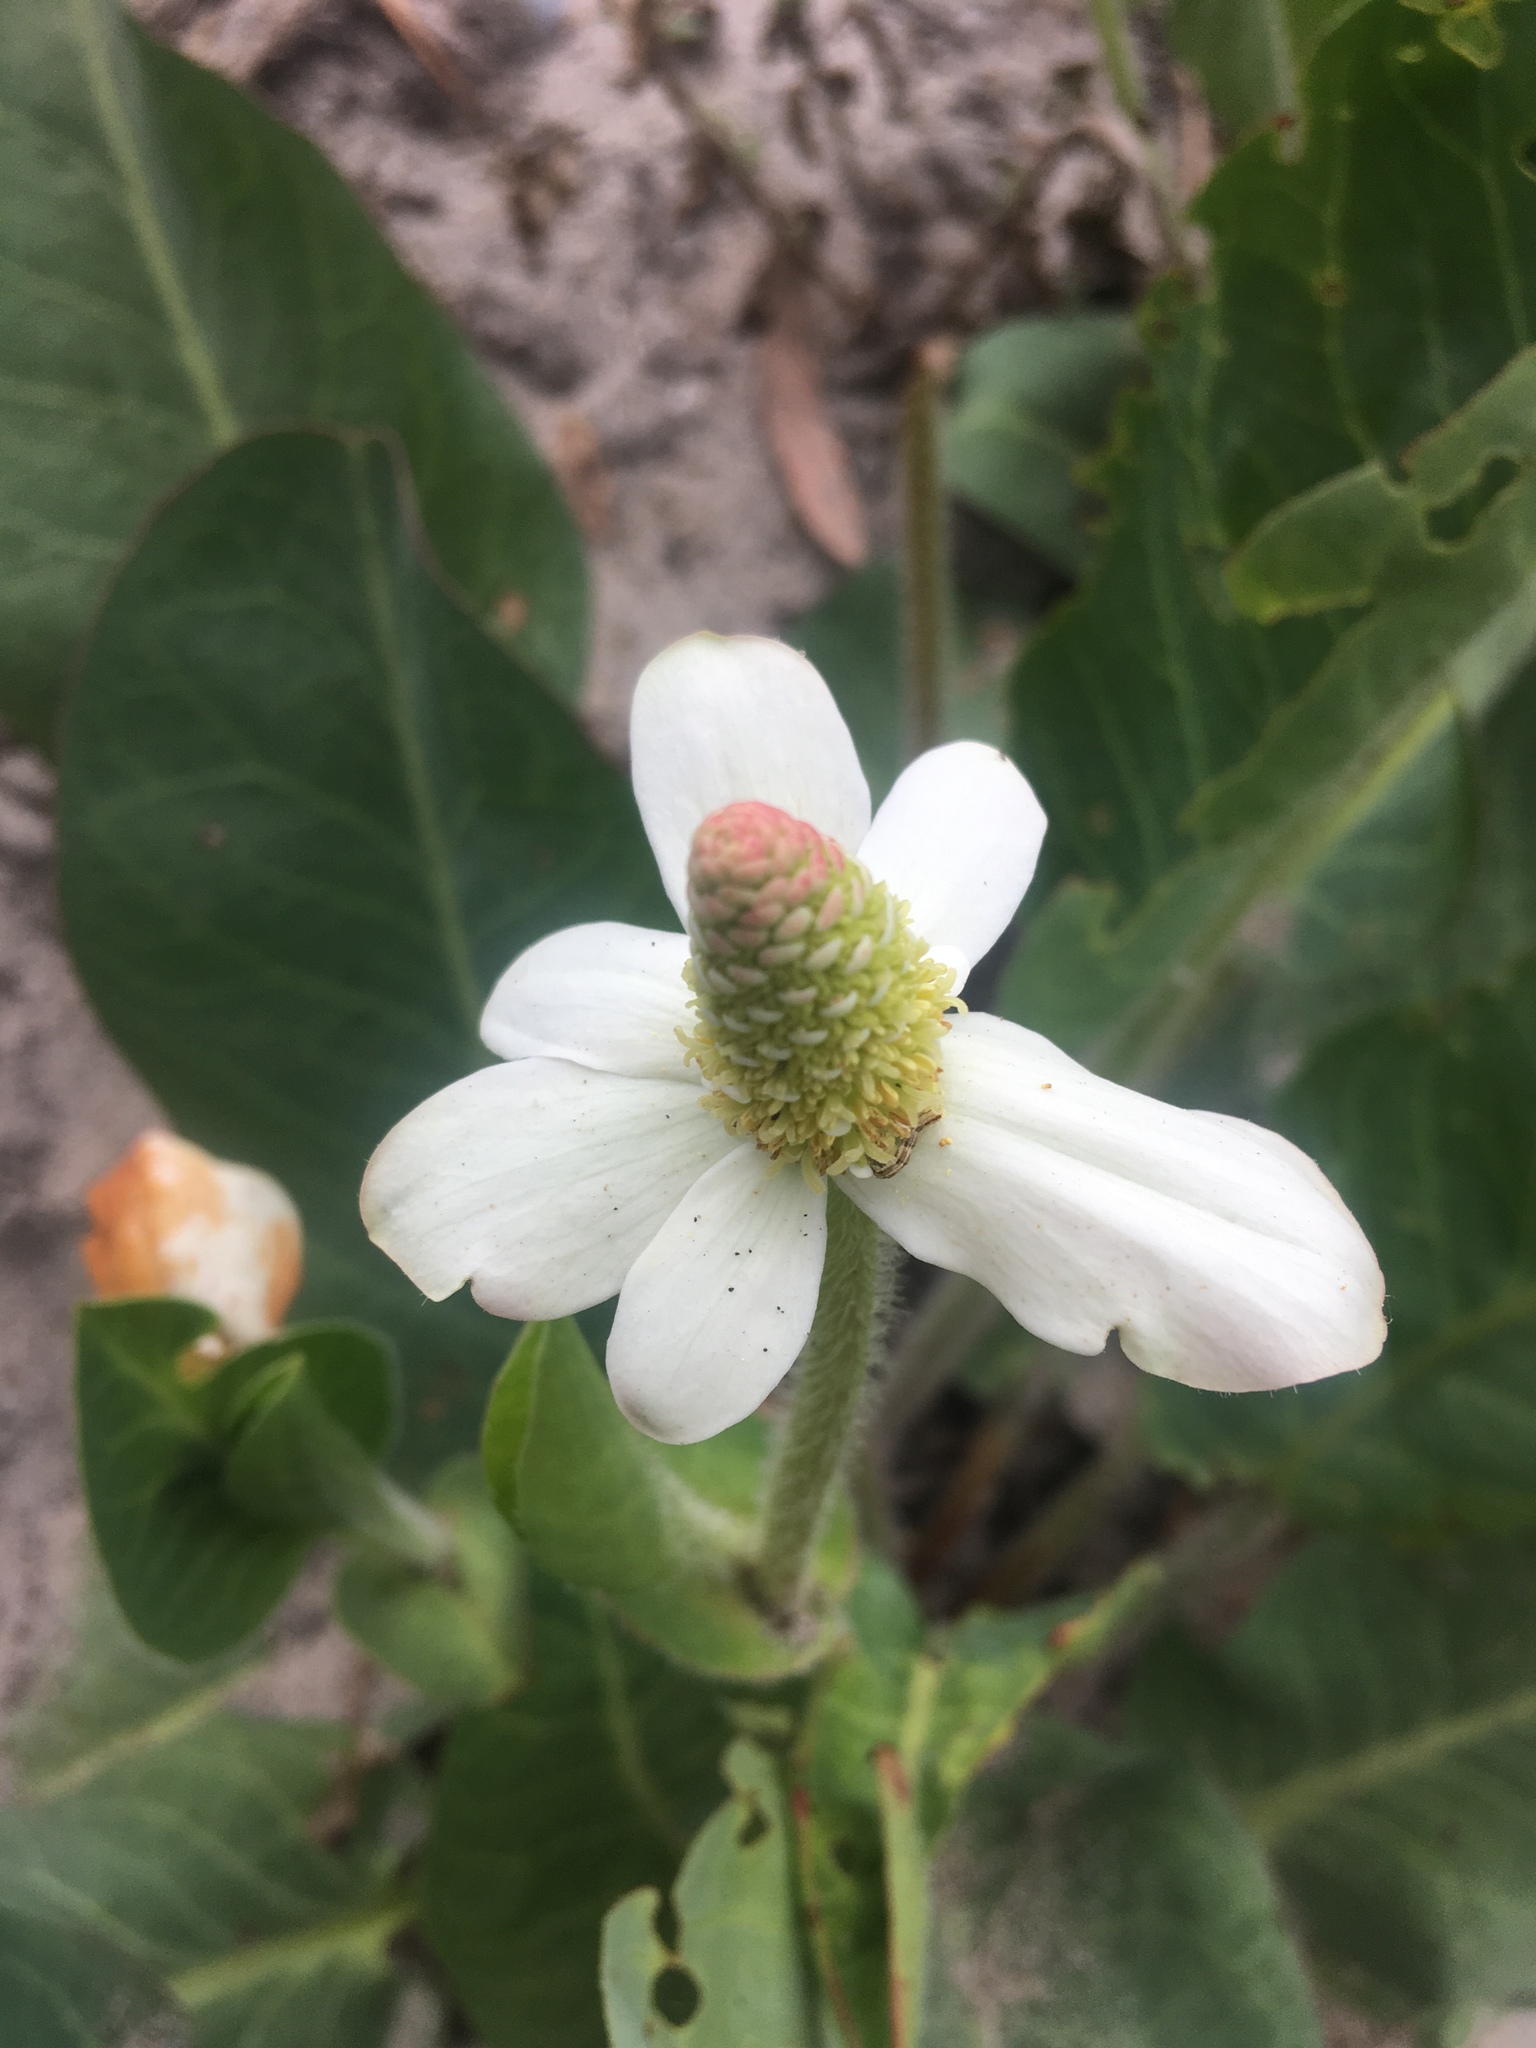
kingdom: Plantae
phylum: Tracheophyta
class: Magnoliopsida
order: Piperales
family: Saururaceae
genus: Anemopsis
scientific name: Anemopsis californica
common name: Apache-beads
